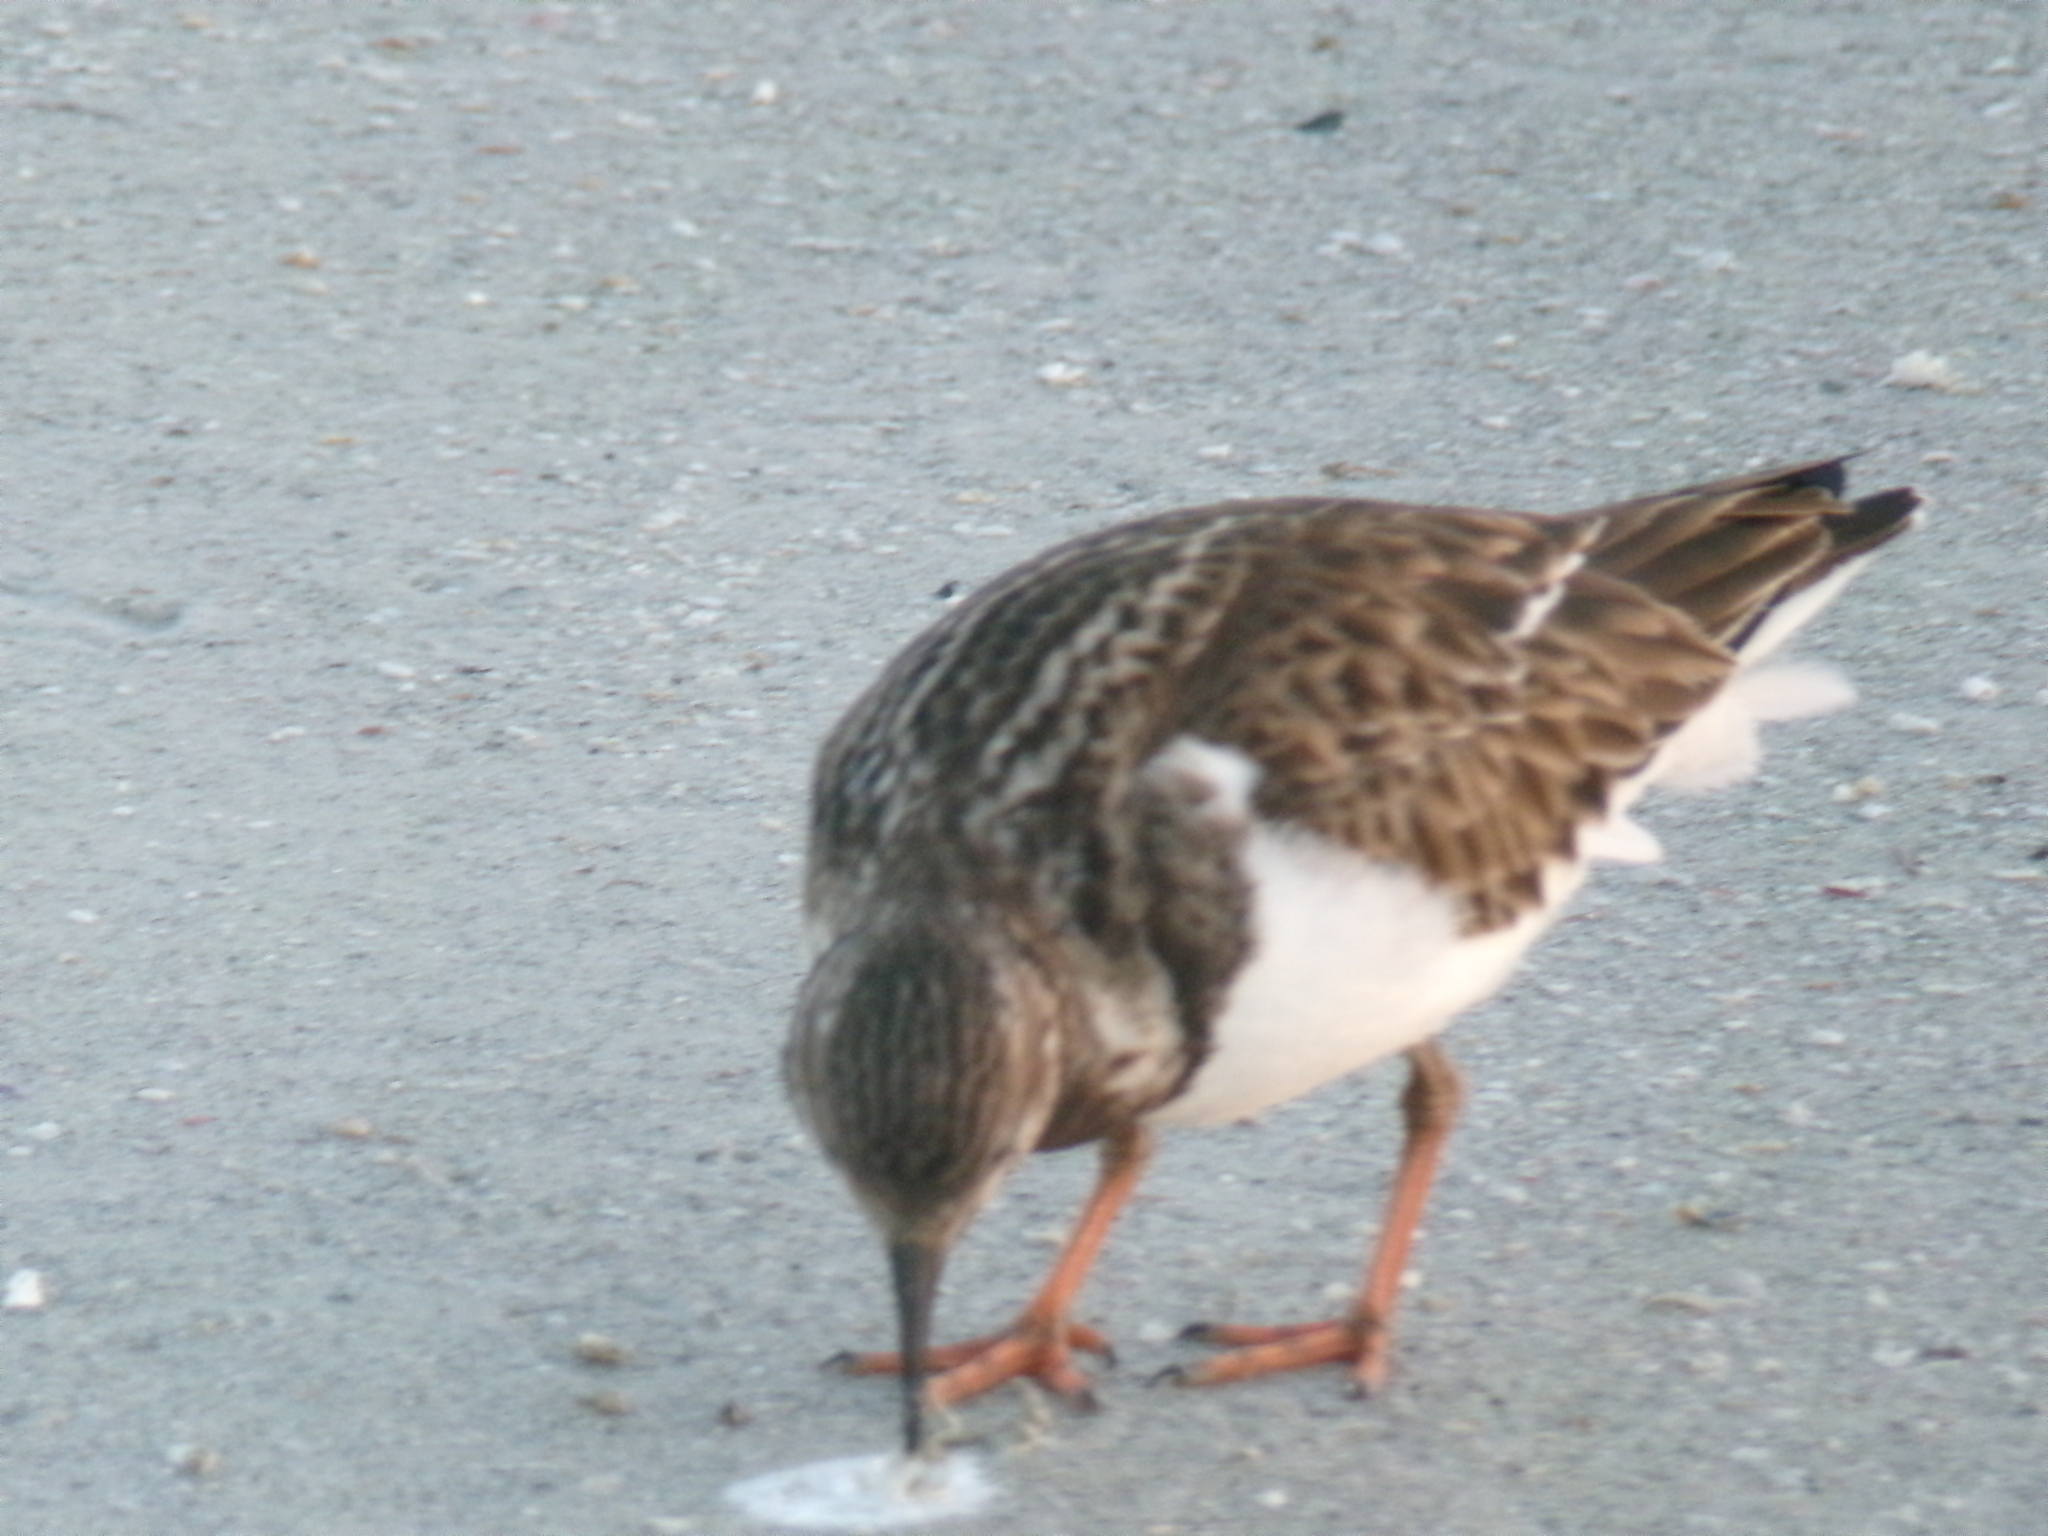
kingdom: Animalia
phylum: Chordata
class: Aves
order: Charadriiformes
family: Scolopacidae
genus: Arenaria
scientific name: Arenaria interpres
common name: Ruddy turnstone
